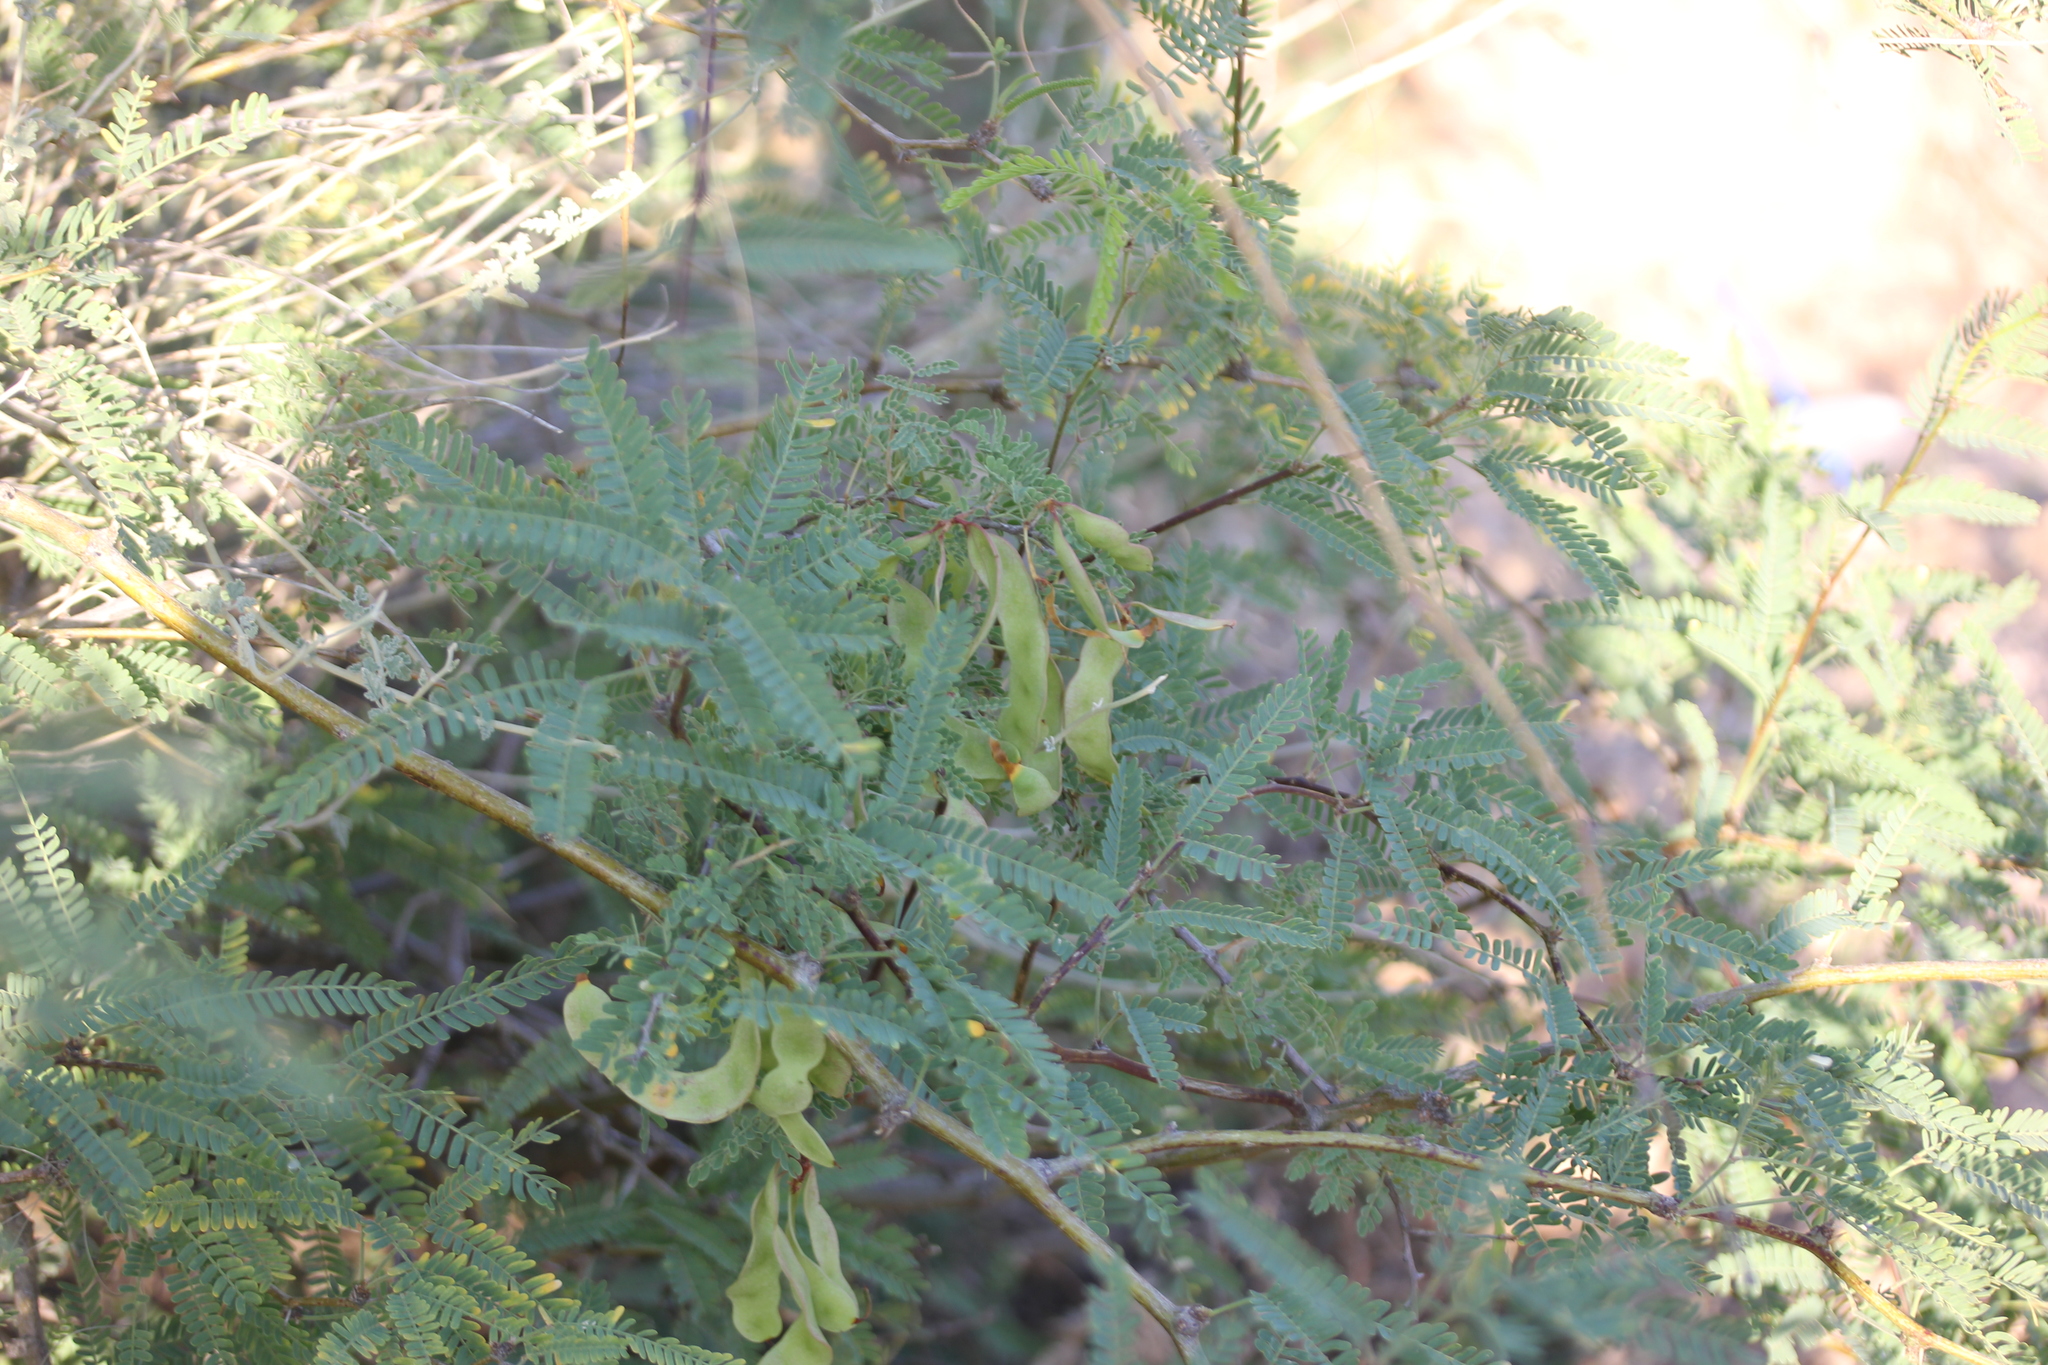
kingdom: Plantae
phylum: Tracheophyta
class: Magnoliopsida
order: Fabales
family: Fabaceae
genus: Senegalia
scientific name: Senegalia greggii
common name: Texas-mimosa
